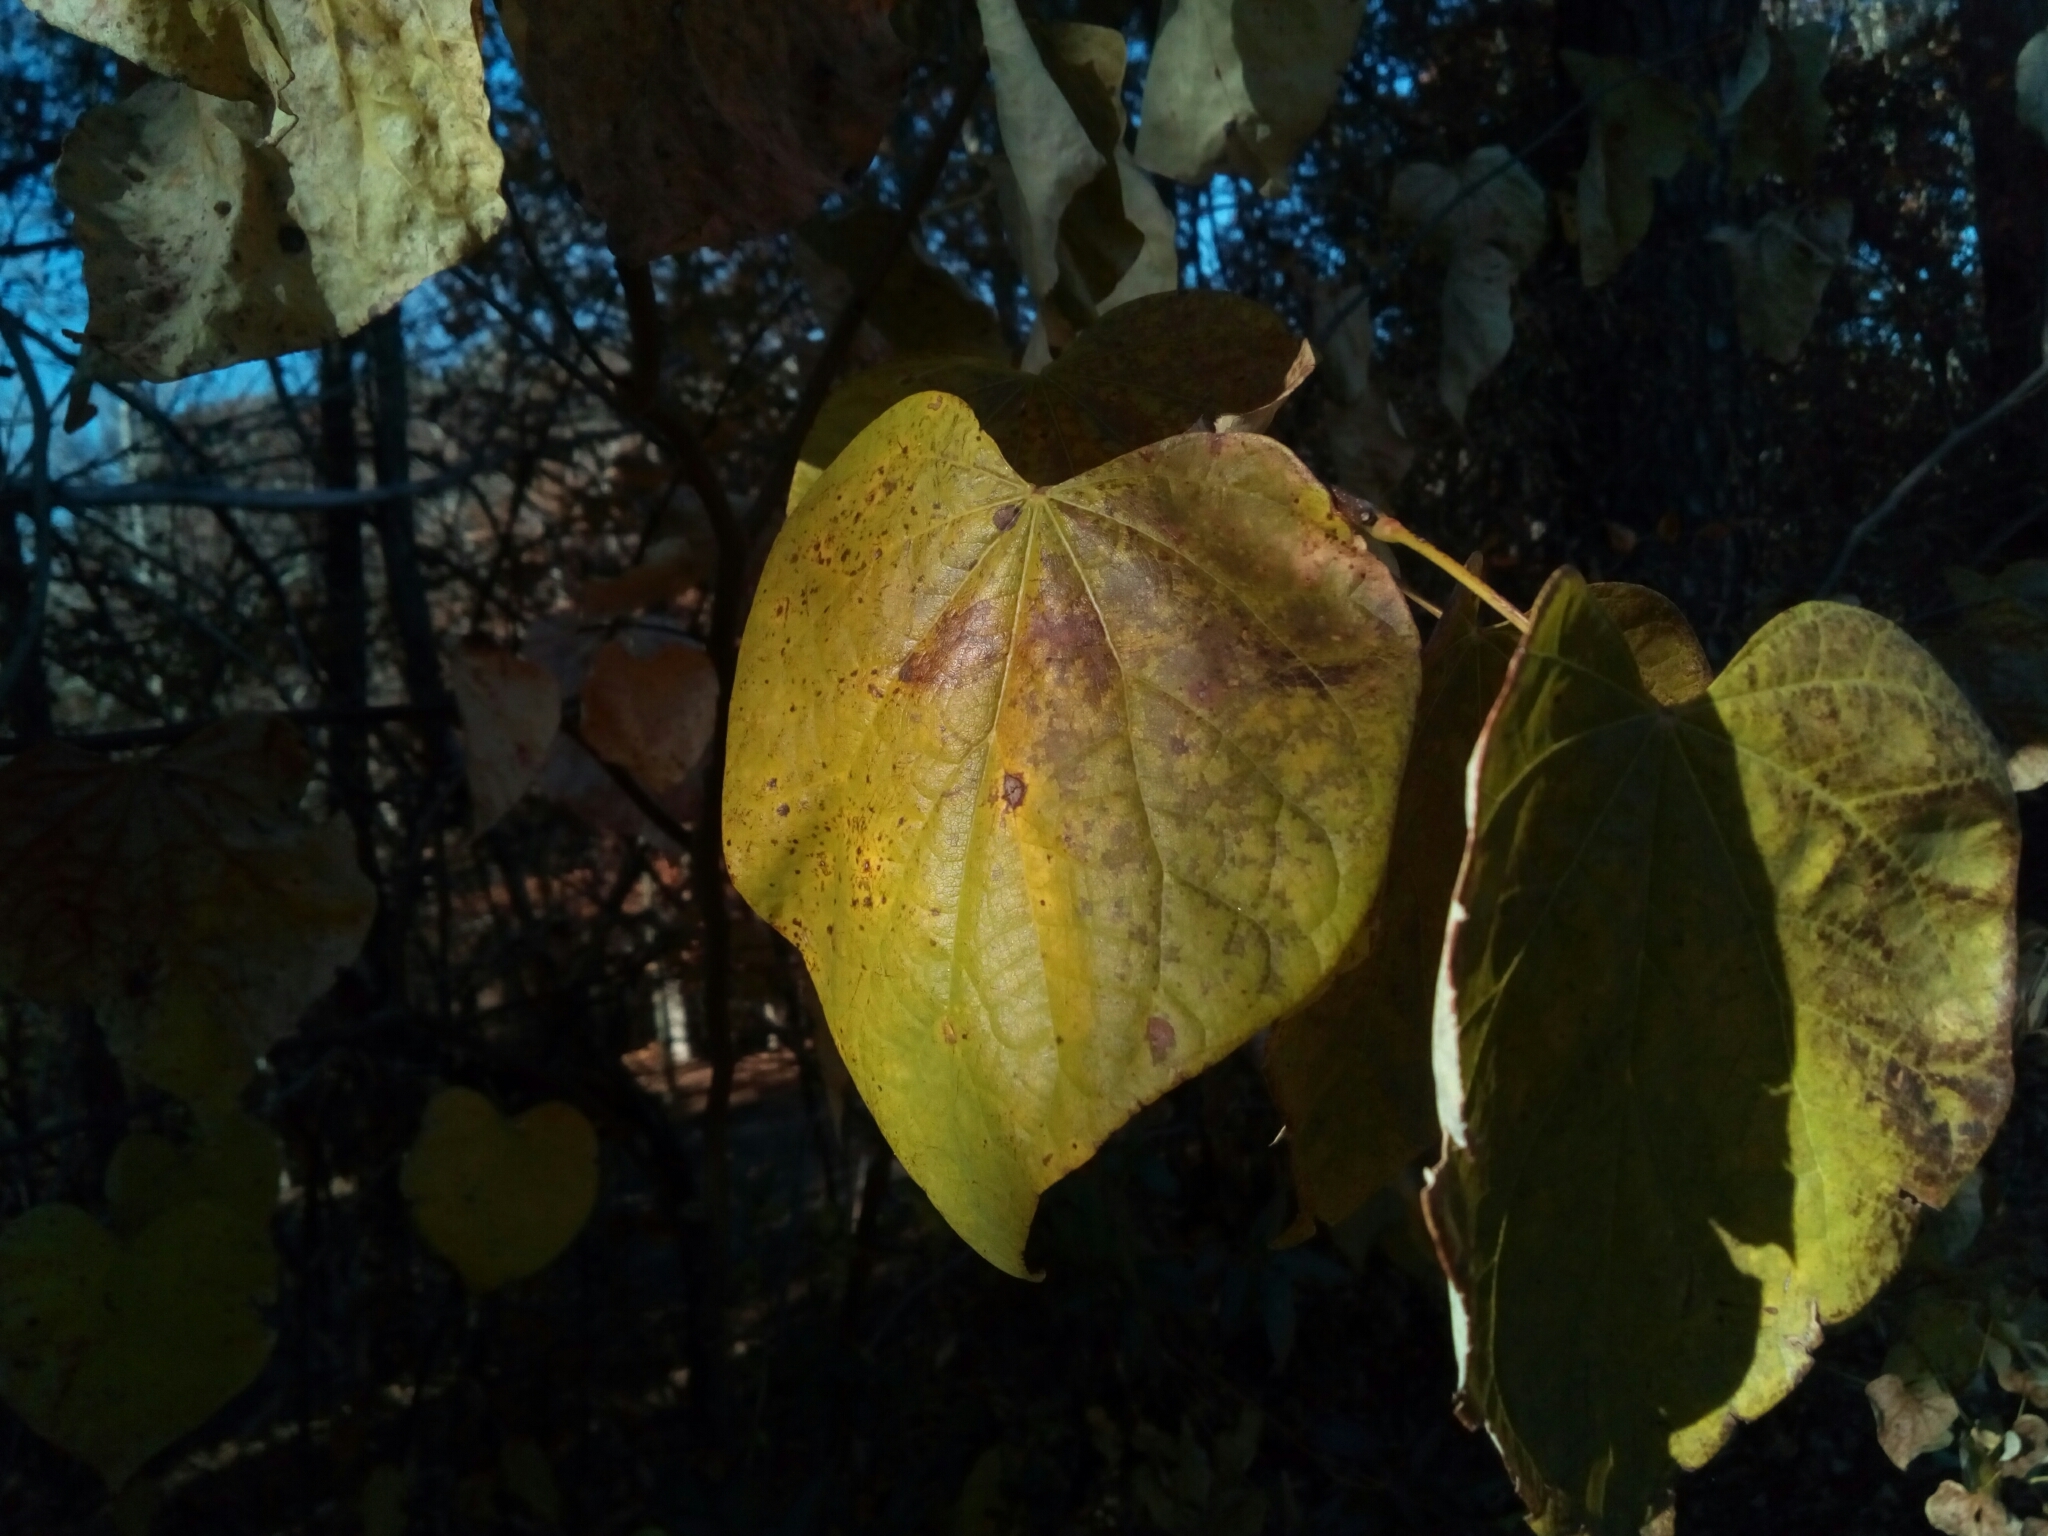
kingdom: Plantae
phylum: Tracheophyta
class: Magnoliopsida
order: Fabales
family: Fabaceae
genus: Cercis
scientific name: Cercis canadensis
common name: Eastern redbud
